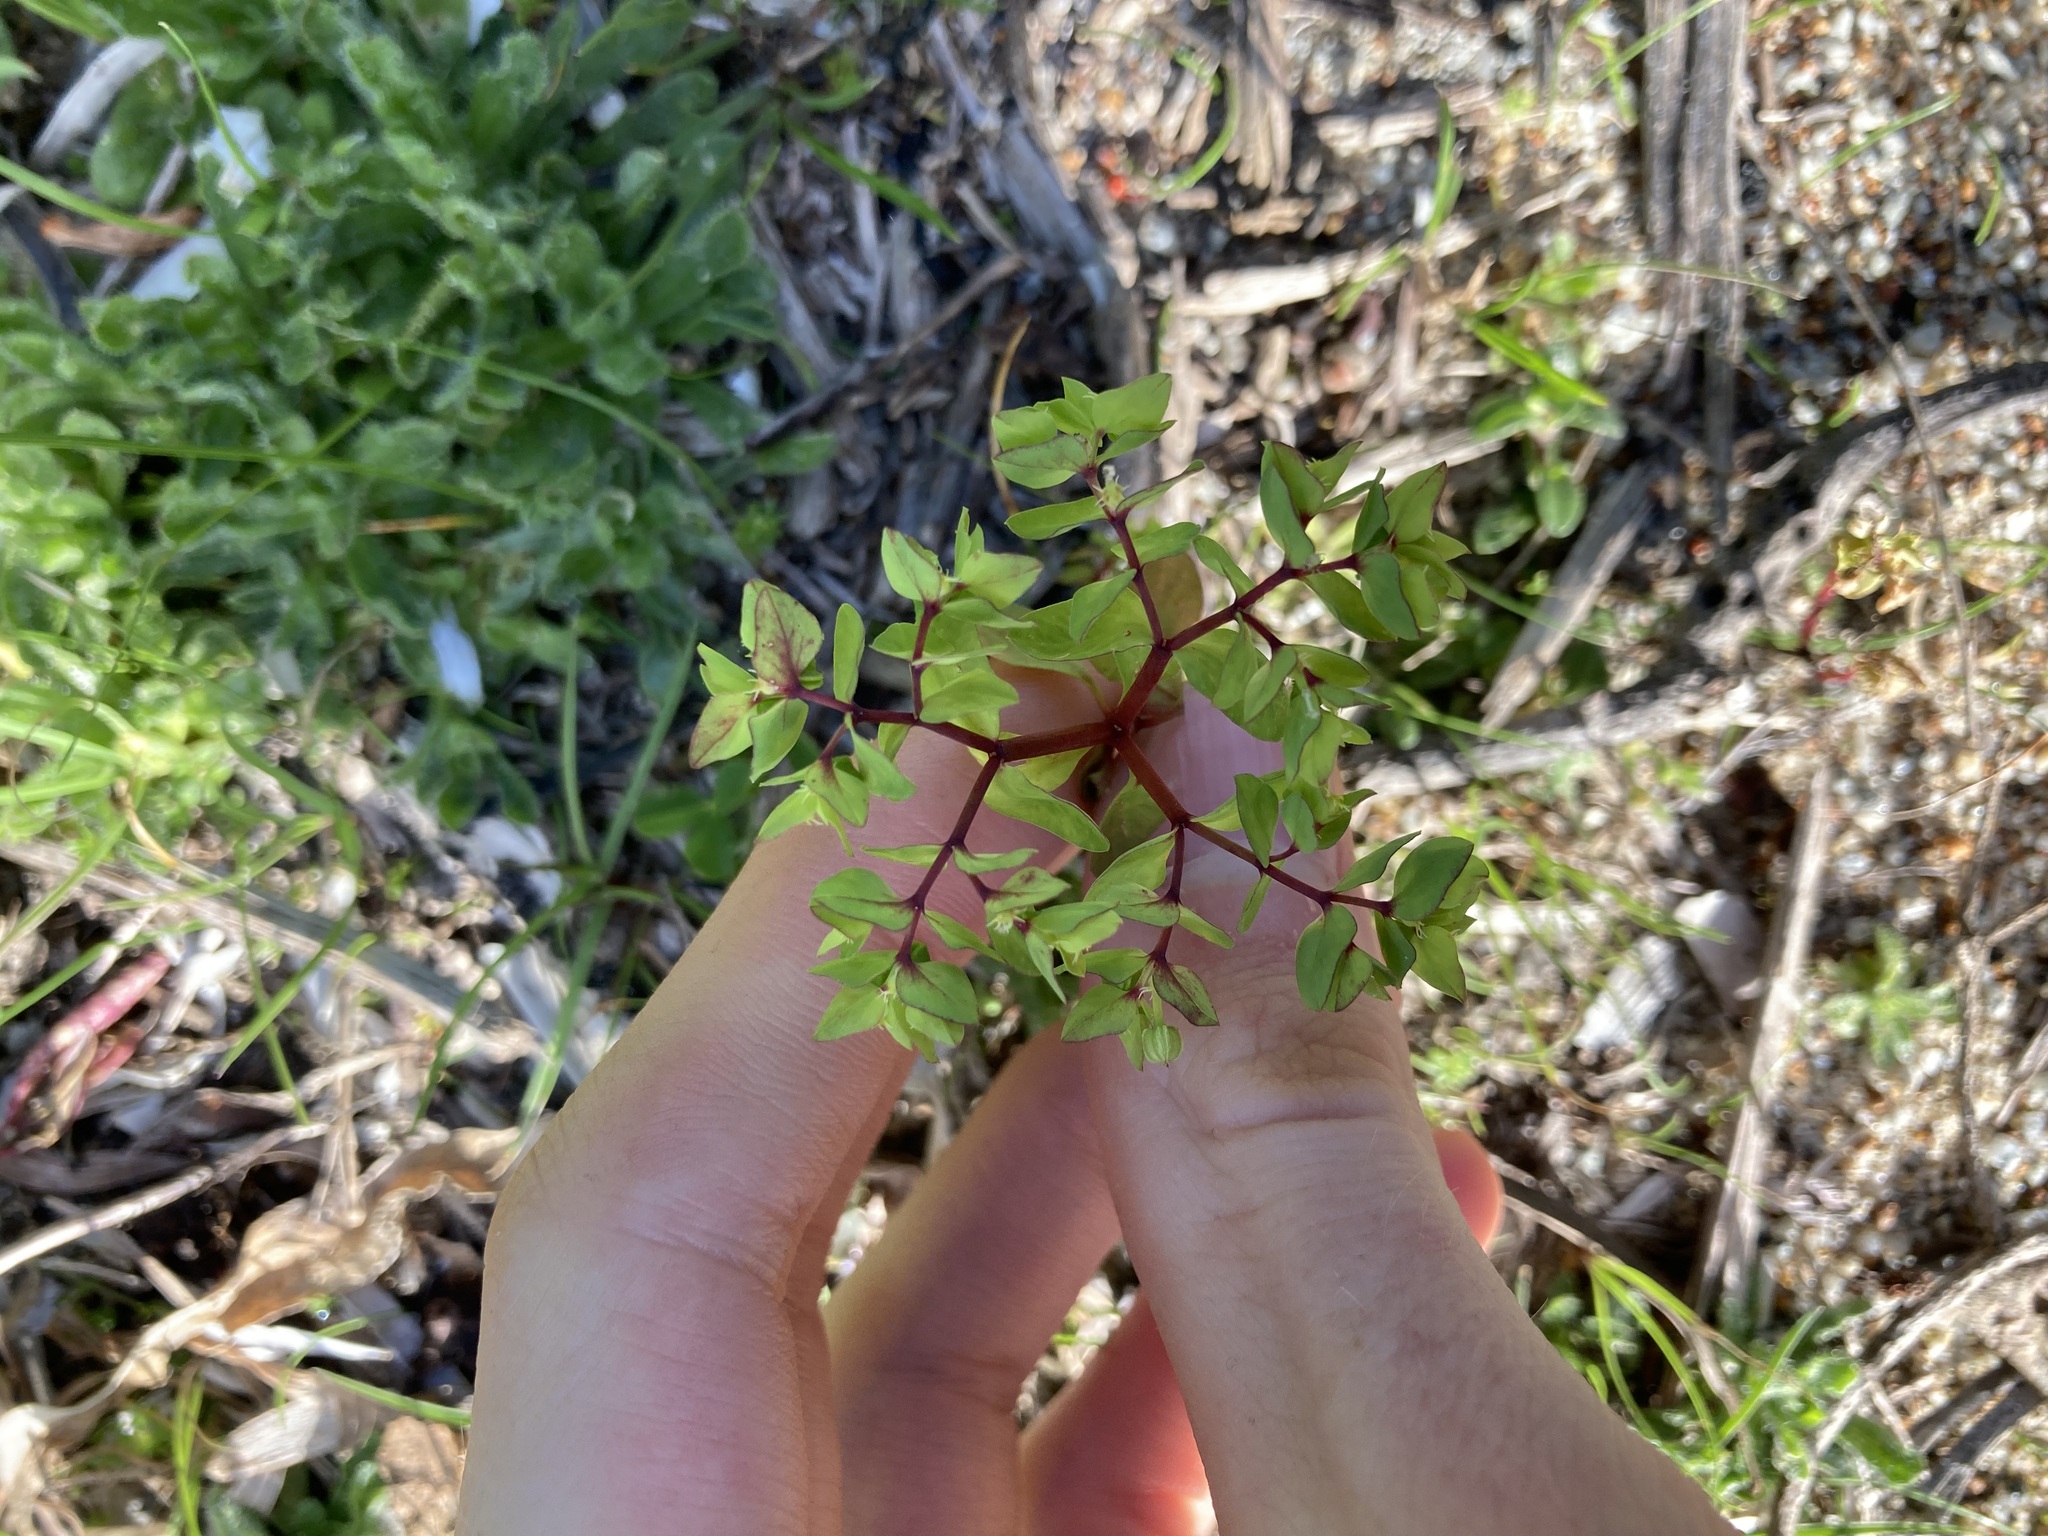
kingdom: Plantae
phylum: Tracheophyta
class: Magnoliopsida
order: Malpighiales
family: Euphorbiaceae
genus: Euphorbia
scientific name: Euphorbia peplus
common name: Petty spurge
